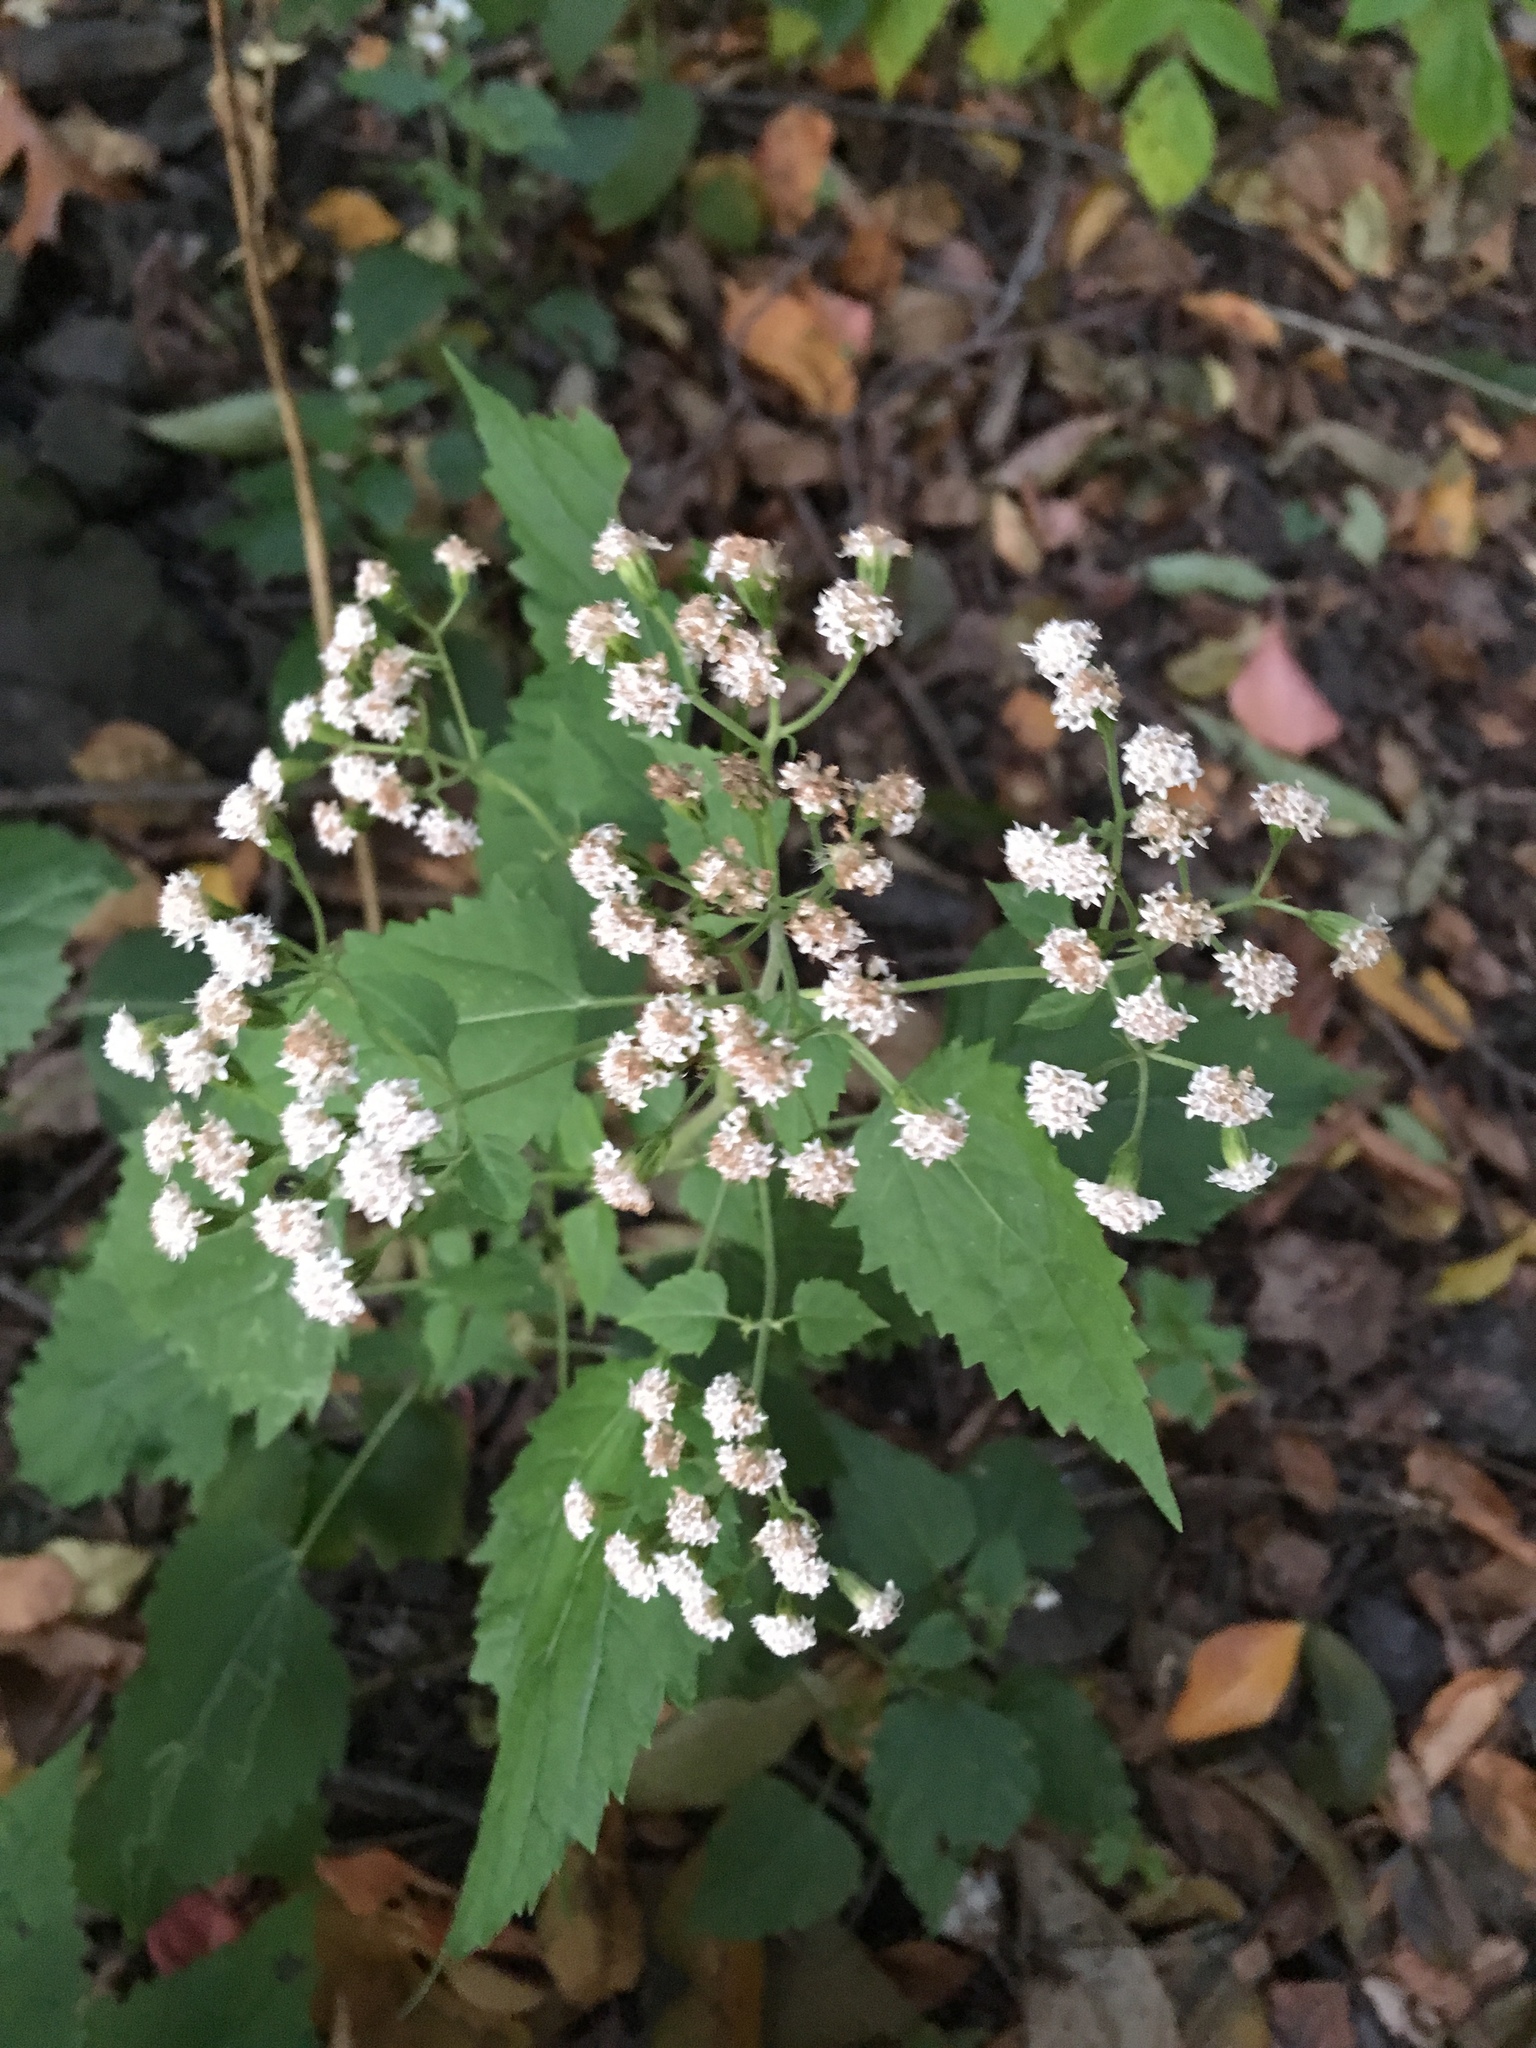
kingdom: Plantae
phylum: Tracheophyta
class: Magnoliopsida
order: Asterales
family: Asteraceae
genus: Ageratina
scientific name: Ageratina altissima
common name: White snakeroot
